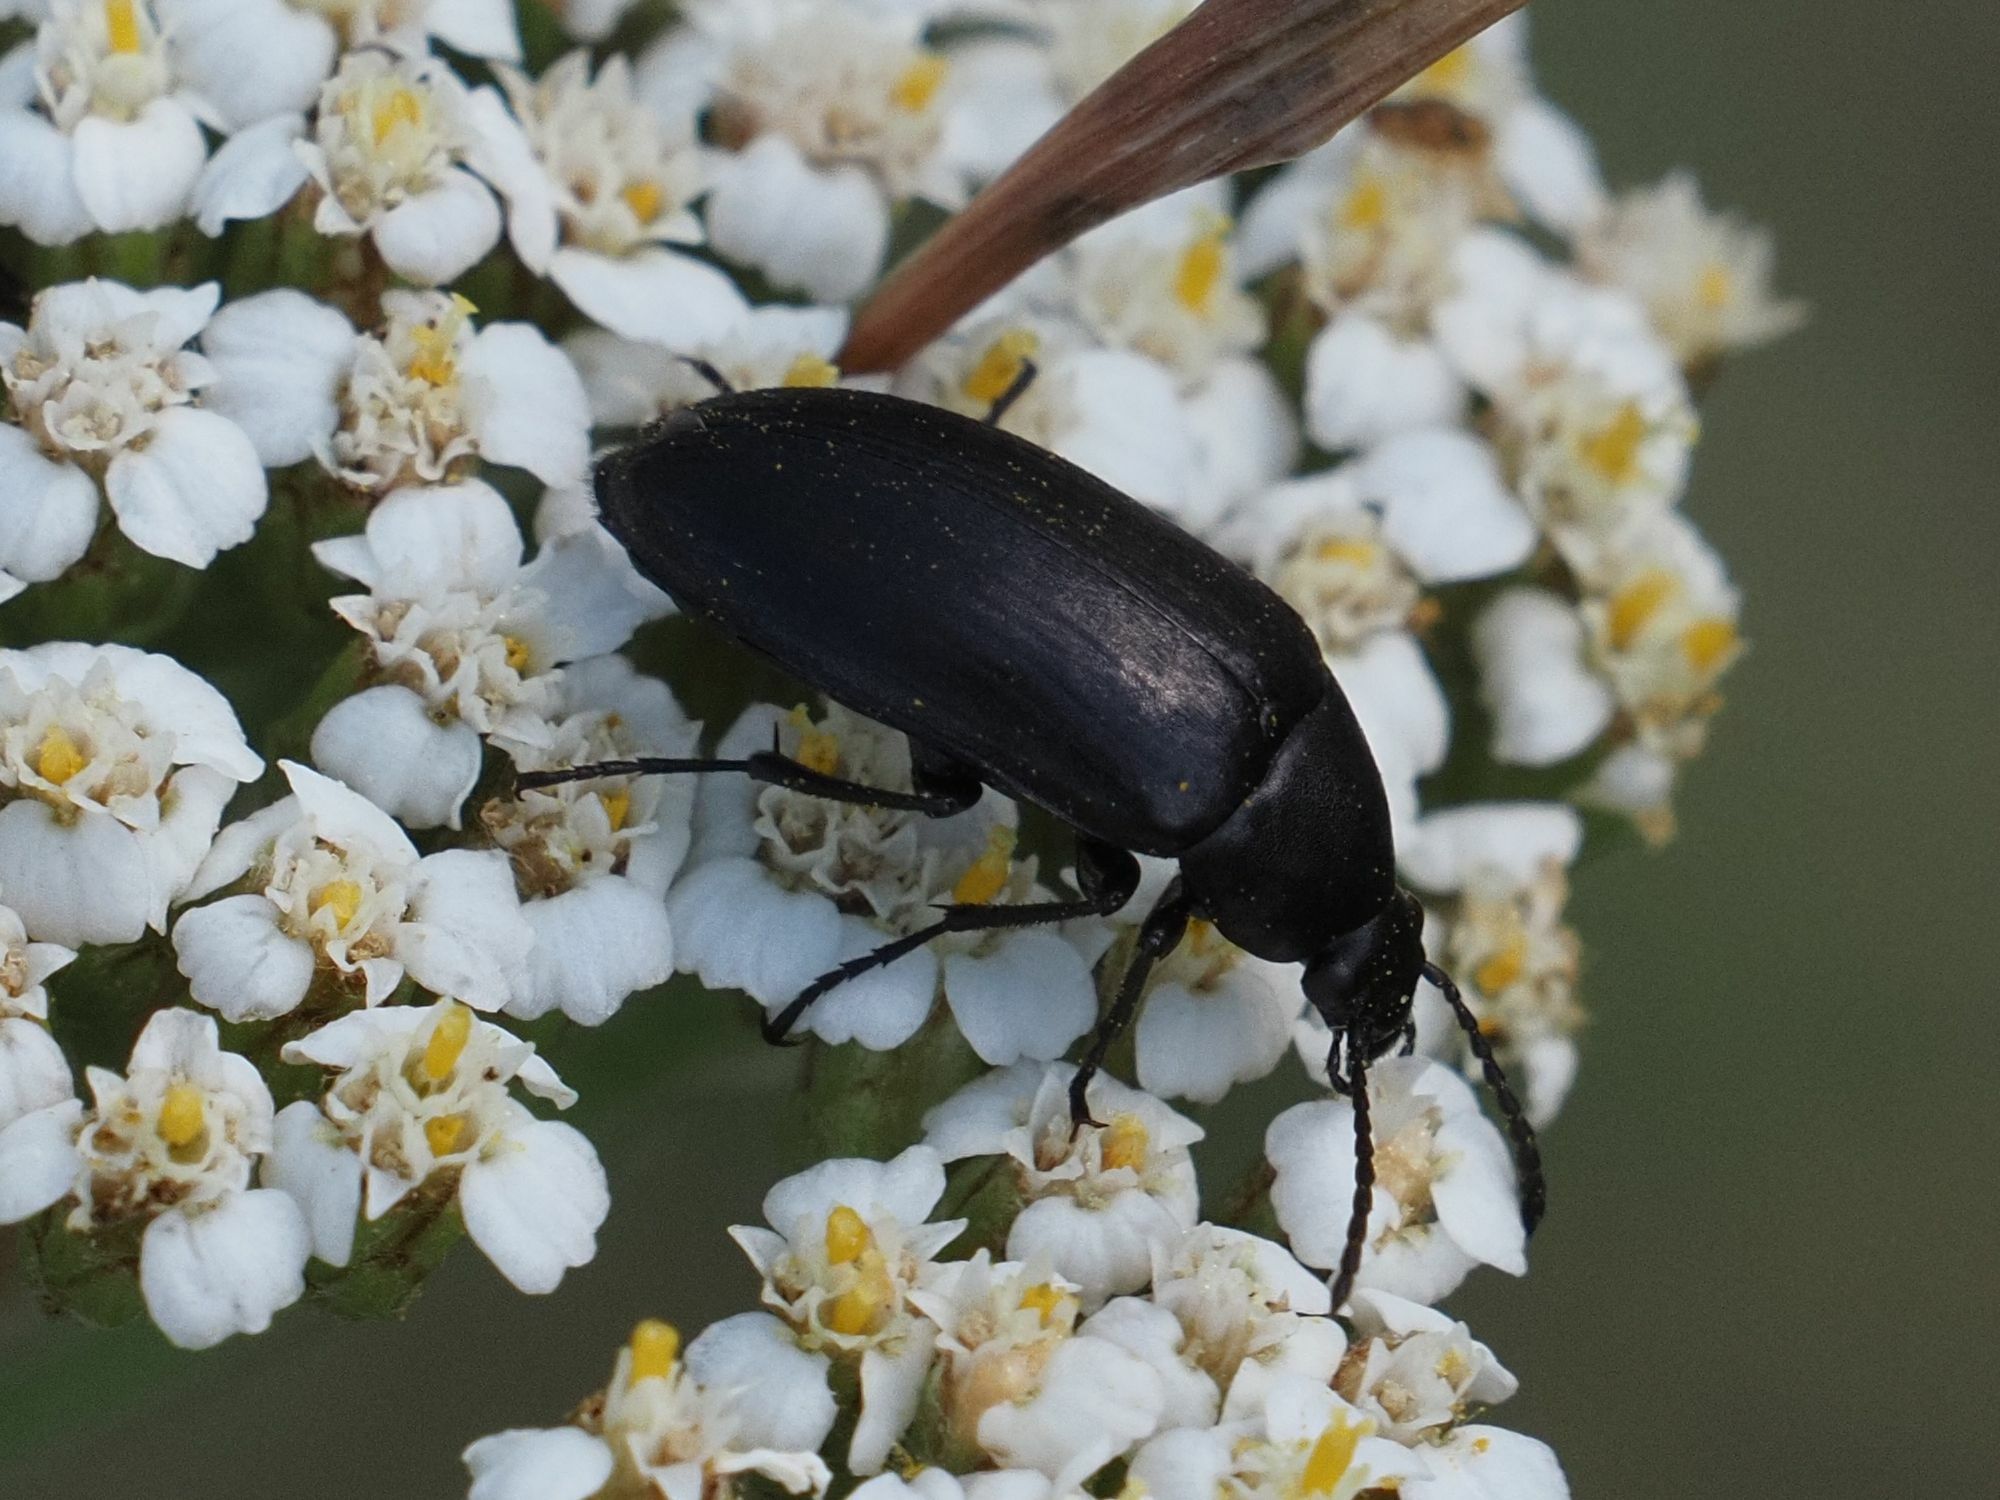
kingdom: Animalia
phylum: Arthropoda
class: Insecta
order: Coleoptera
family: Tenebrionidae
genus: Podonta
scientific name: Podonta nigrita
